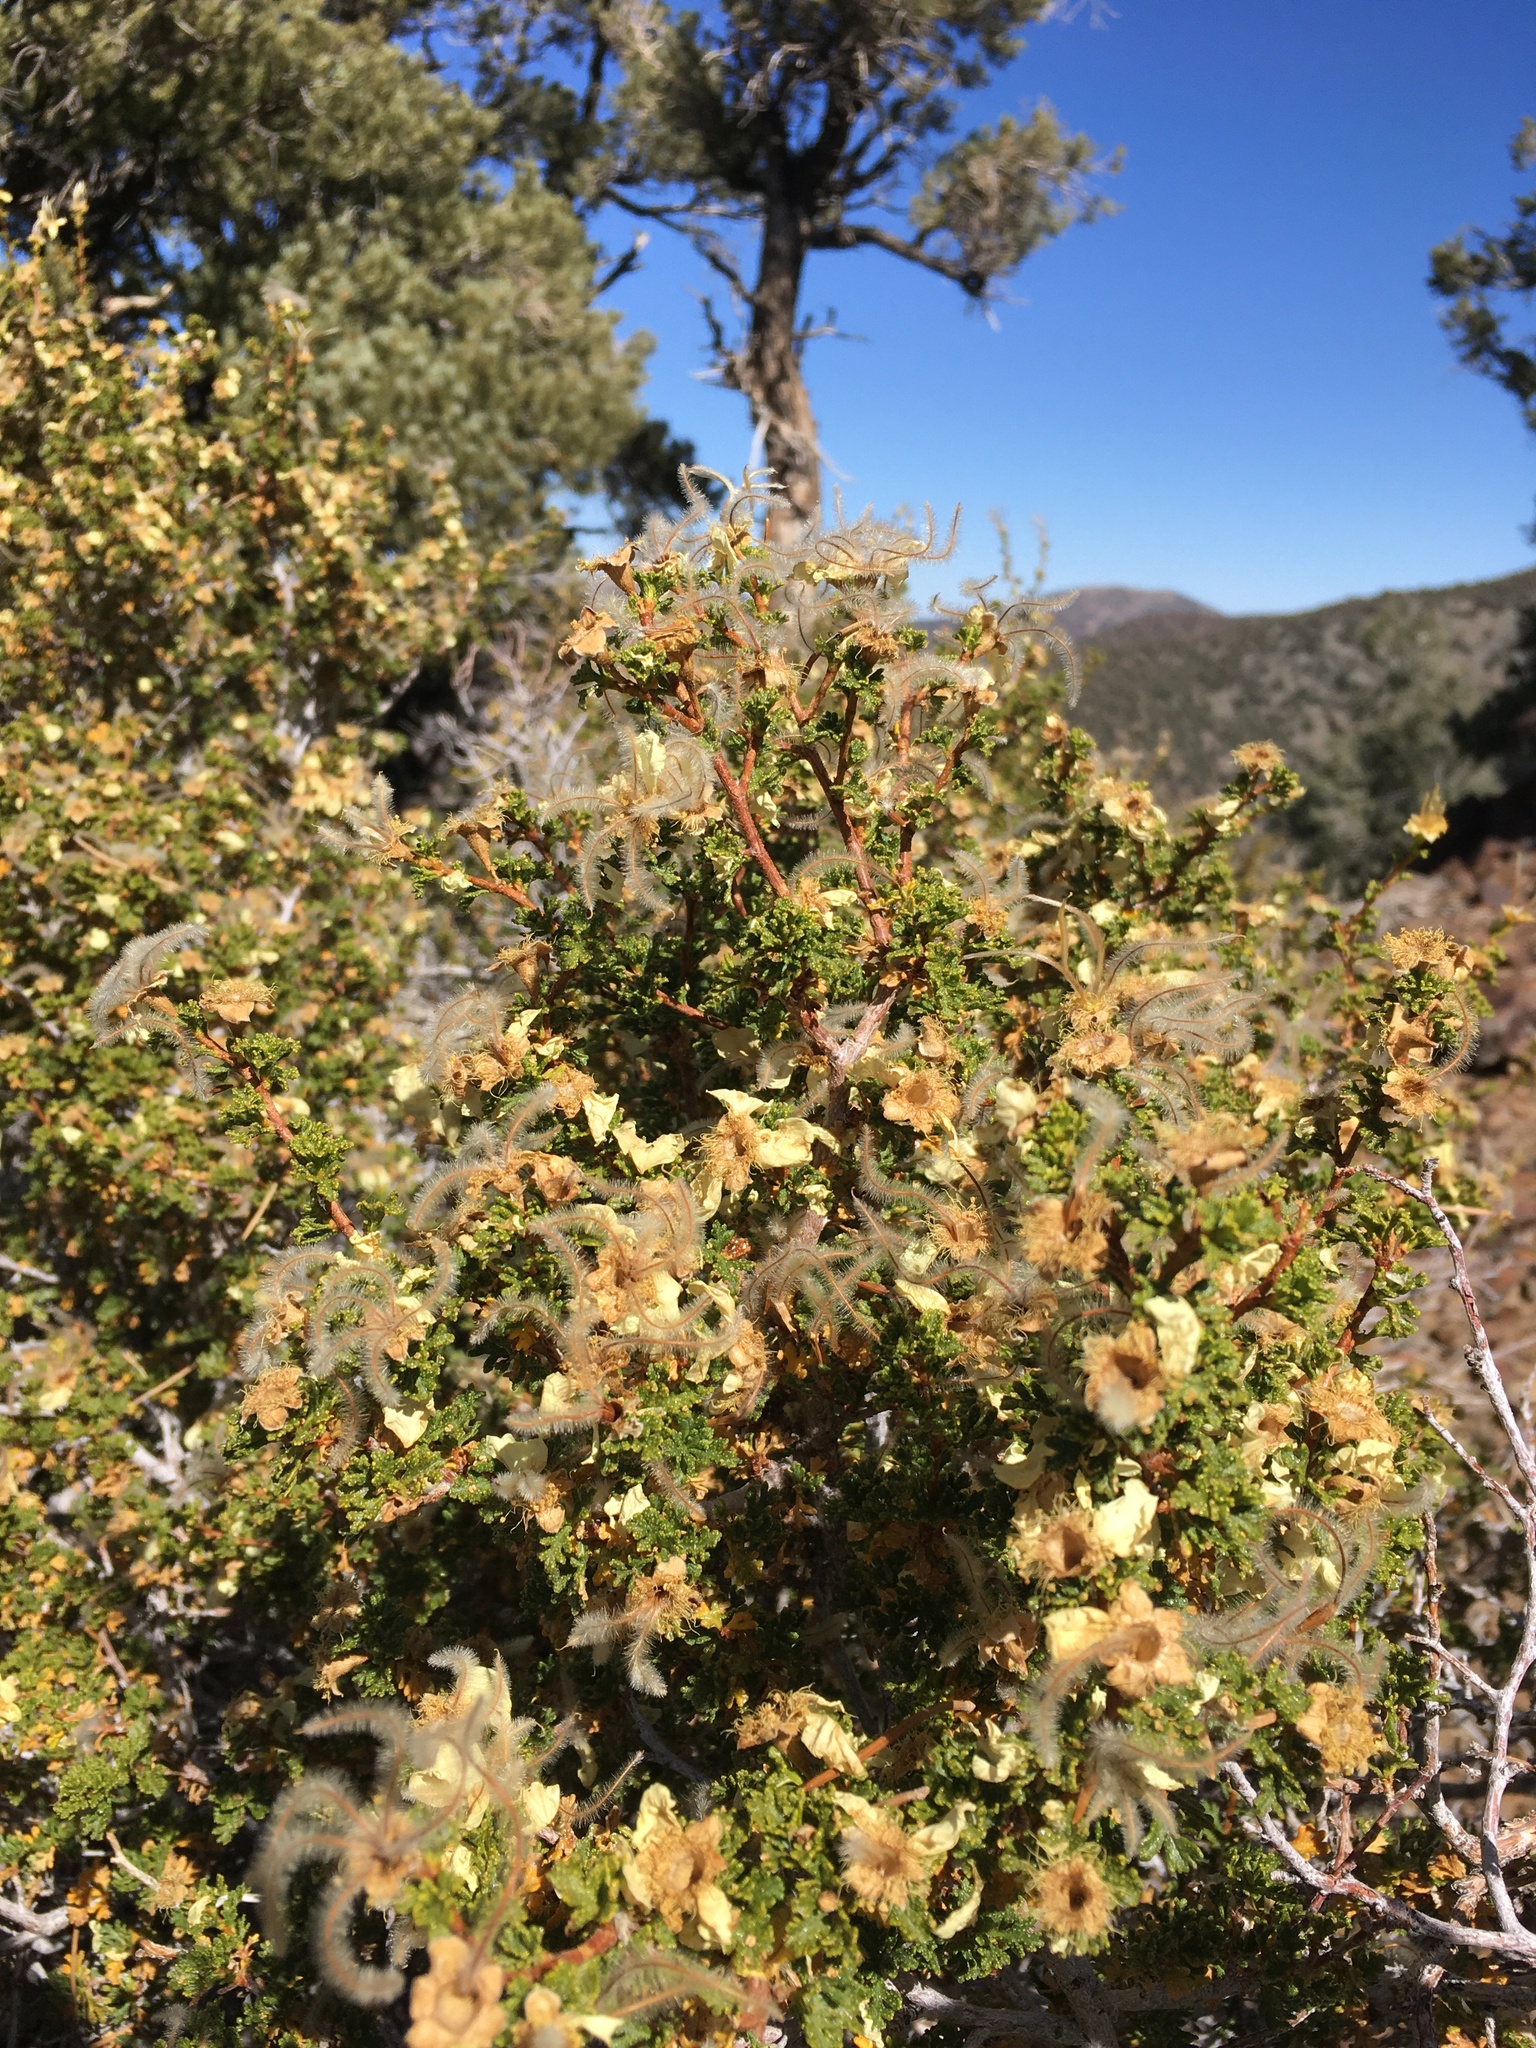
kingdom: Plantae
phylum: Tracheophyta
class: Magnoliopsida
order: Rosales
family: Rosaceae
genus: Purshia
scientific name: Purshia stansburiana
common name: Stansbury's cliffrose
